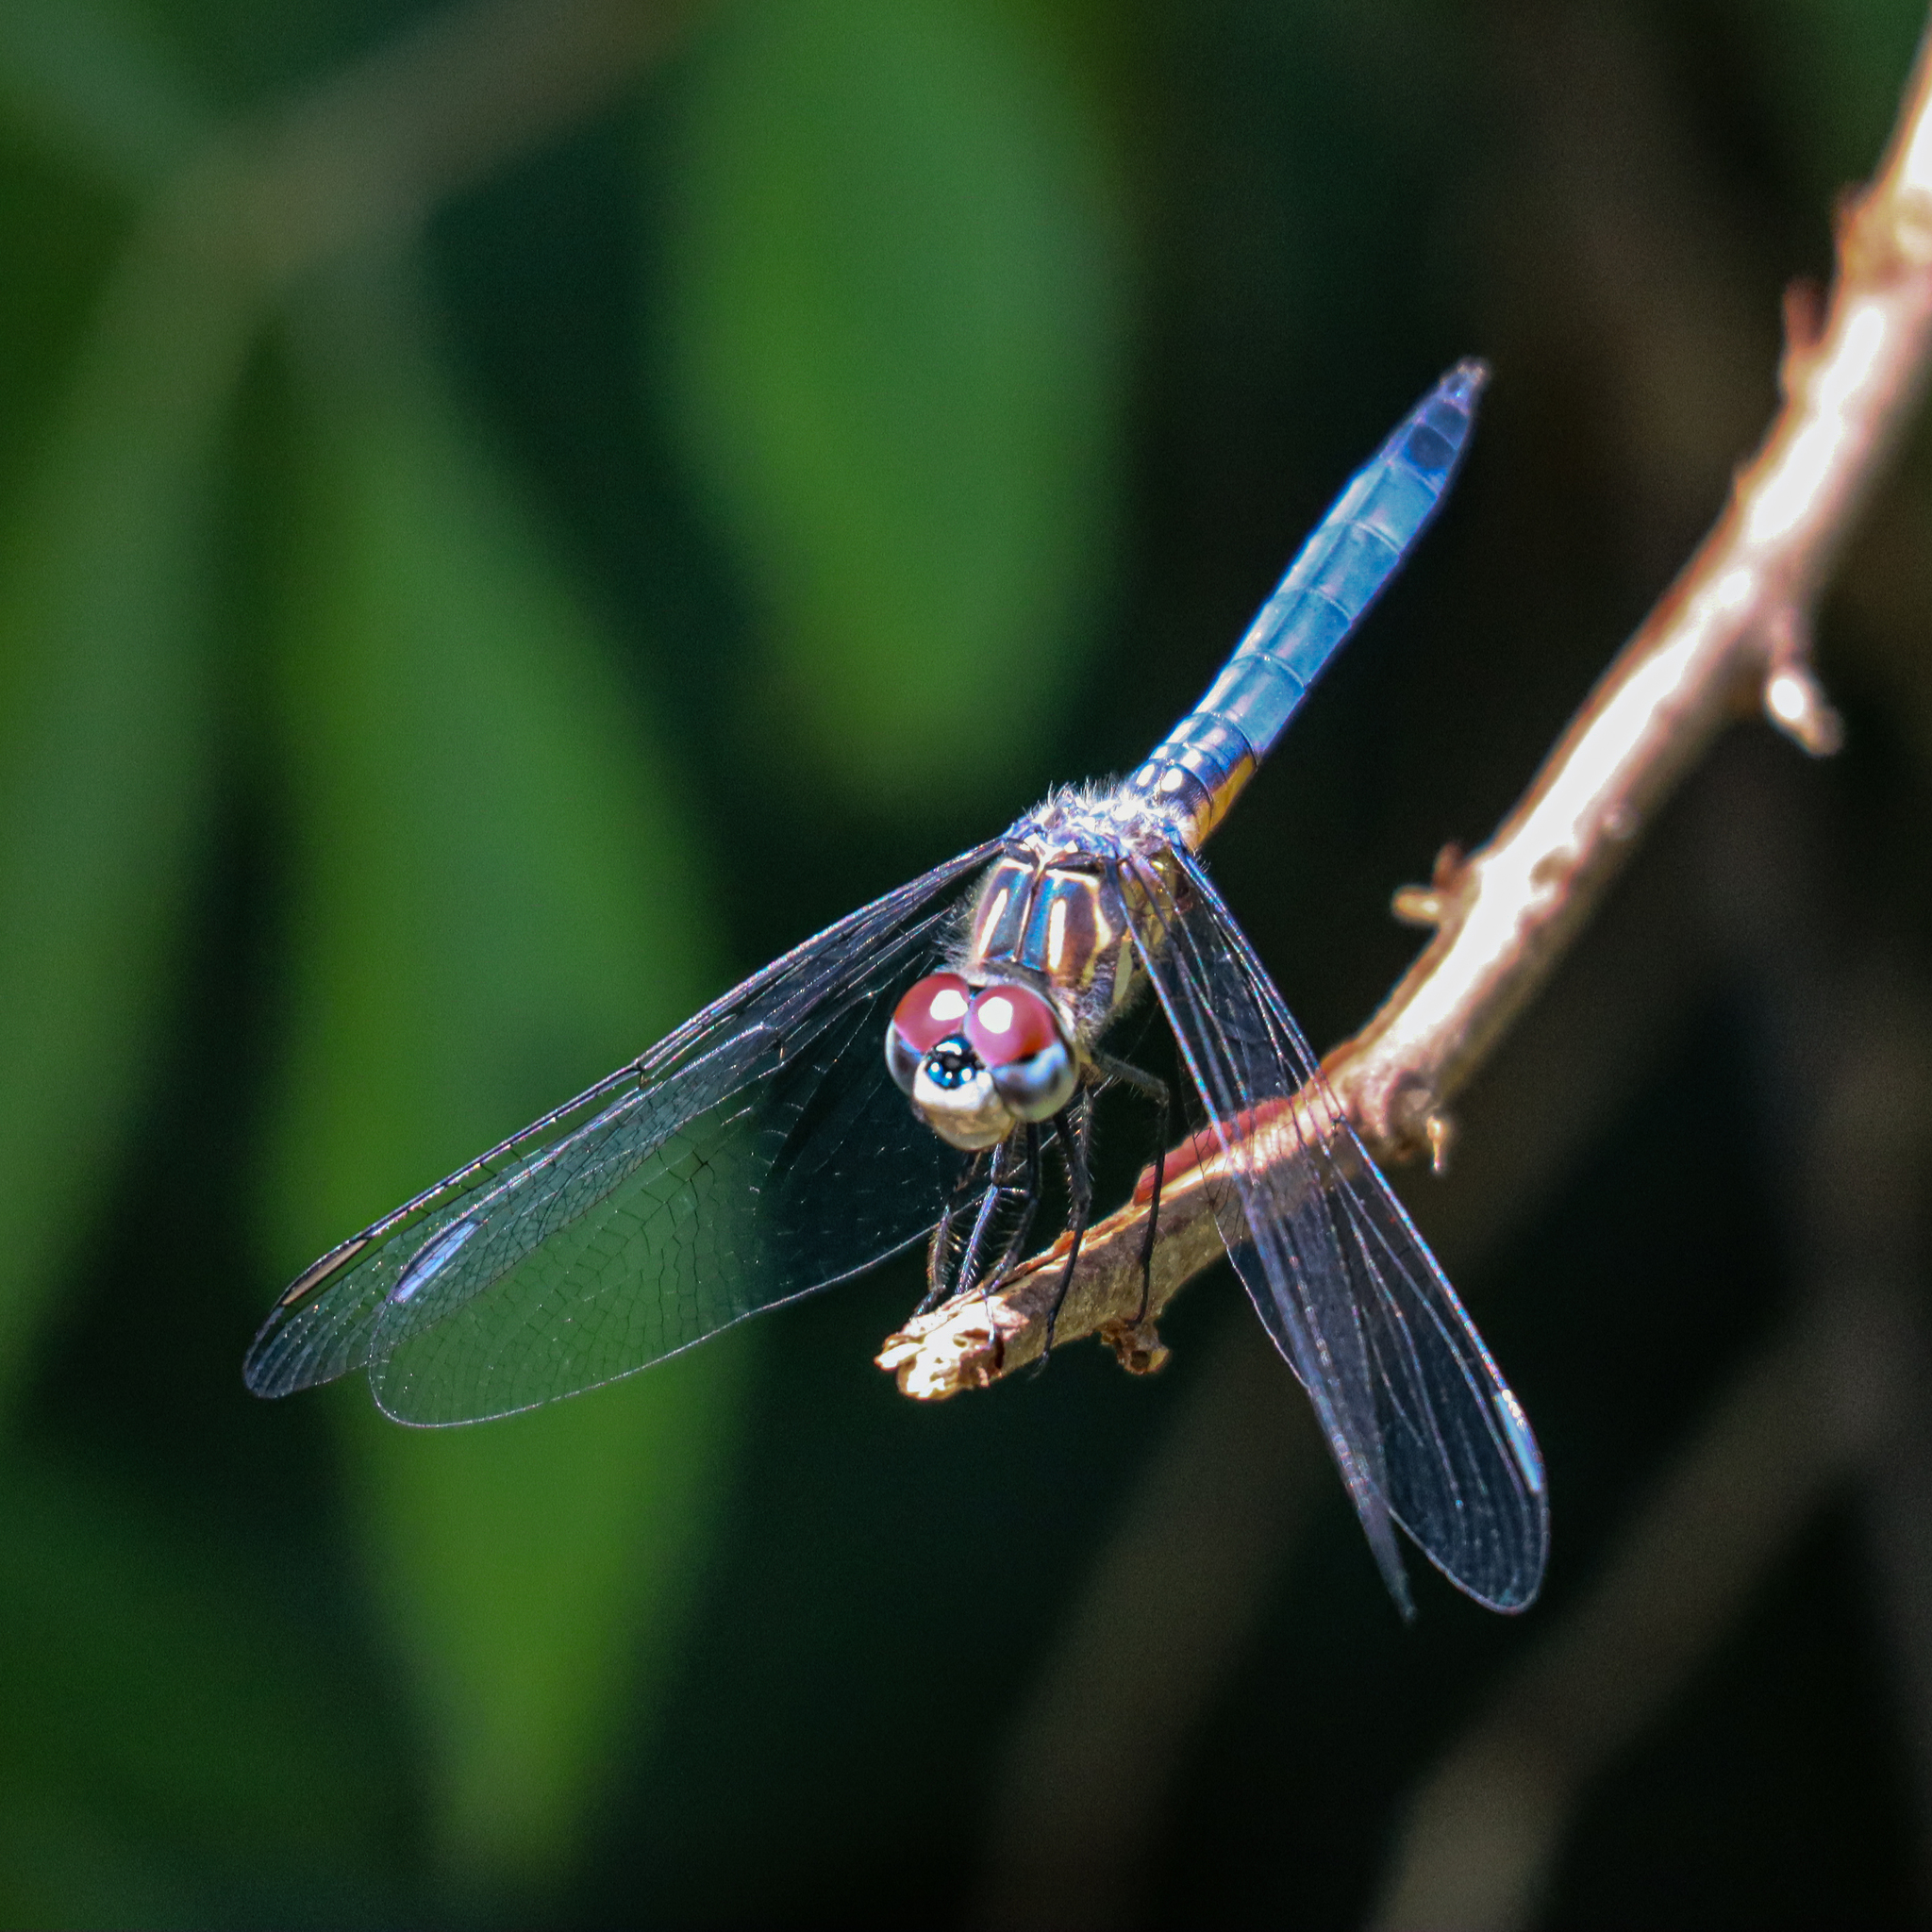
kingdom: Animalia
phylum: Arthropoda
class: Insecta
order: Odonata
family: Libellulidae
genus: Pachydiplax
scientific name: Pachydiplax longipennis
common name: Blue dasher
